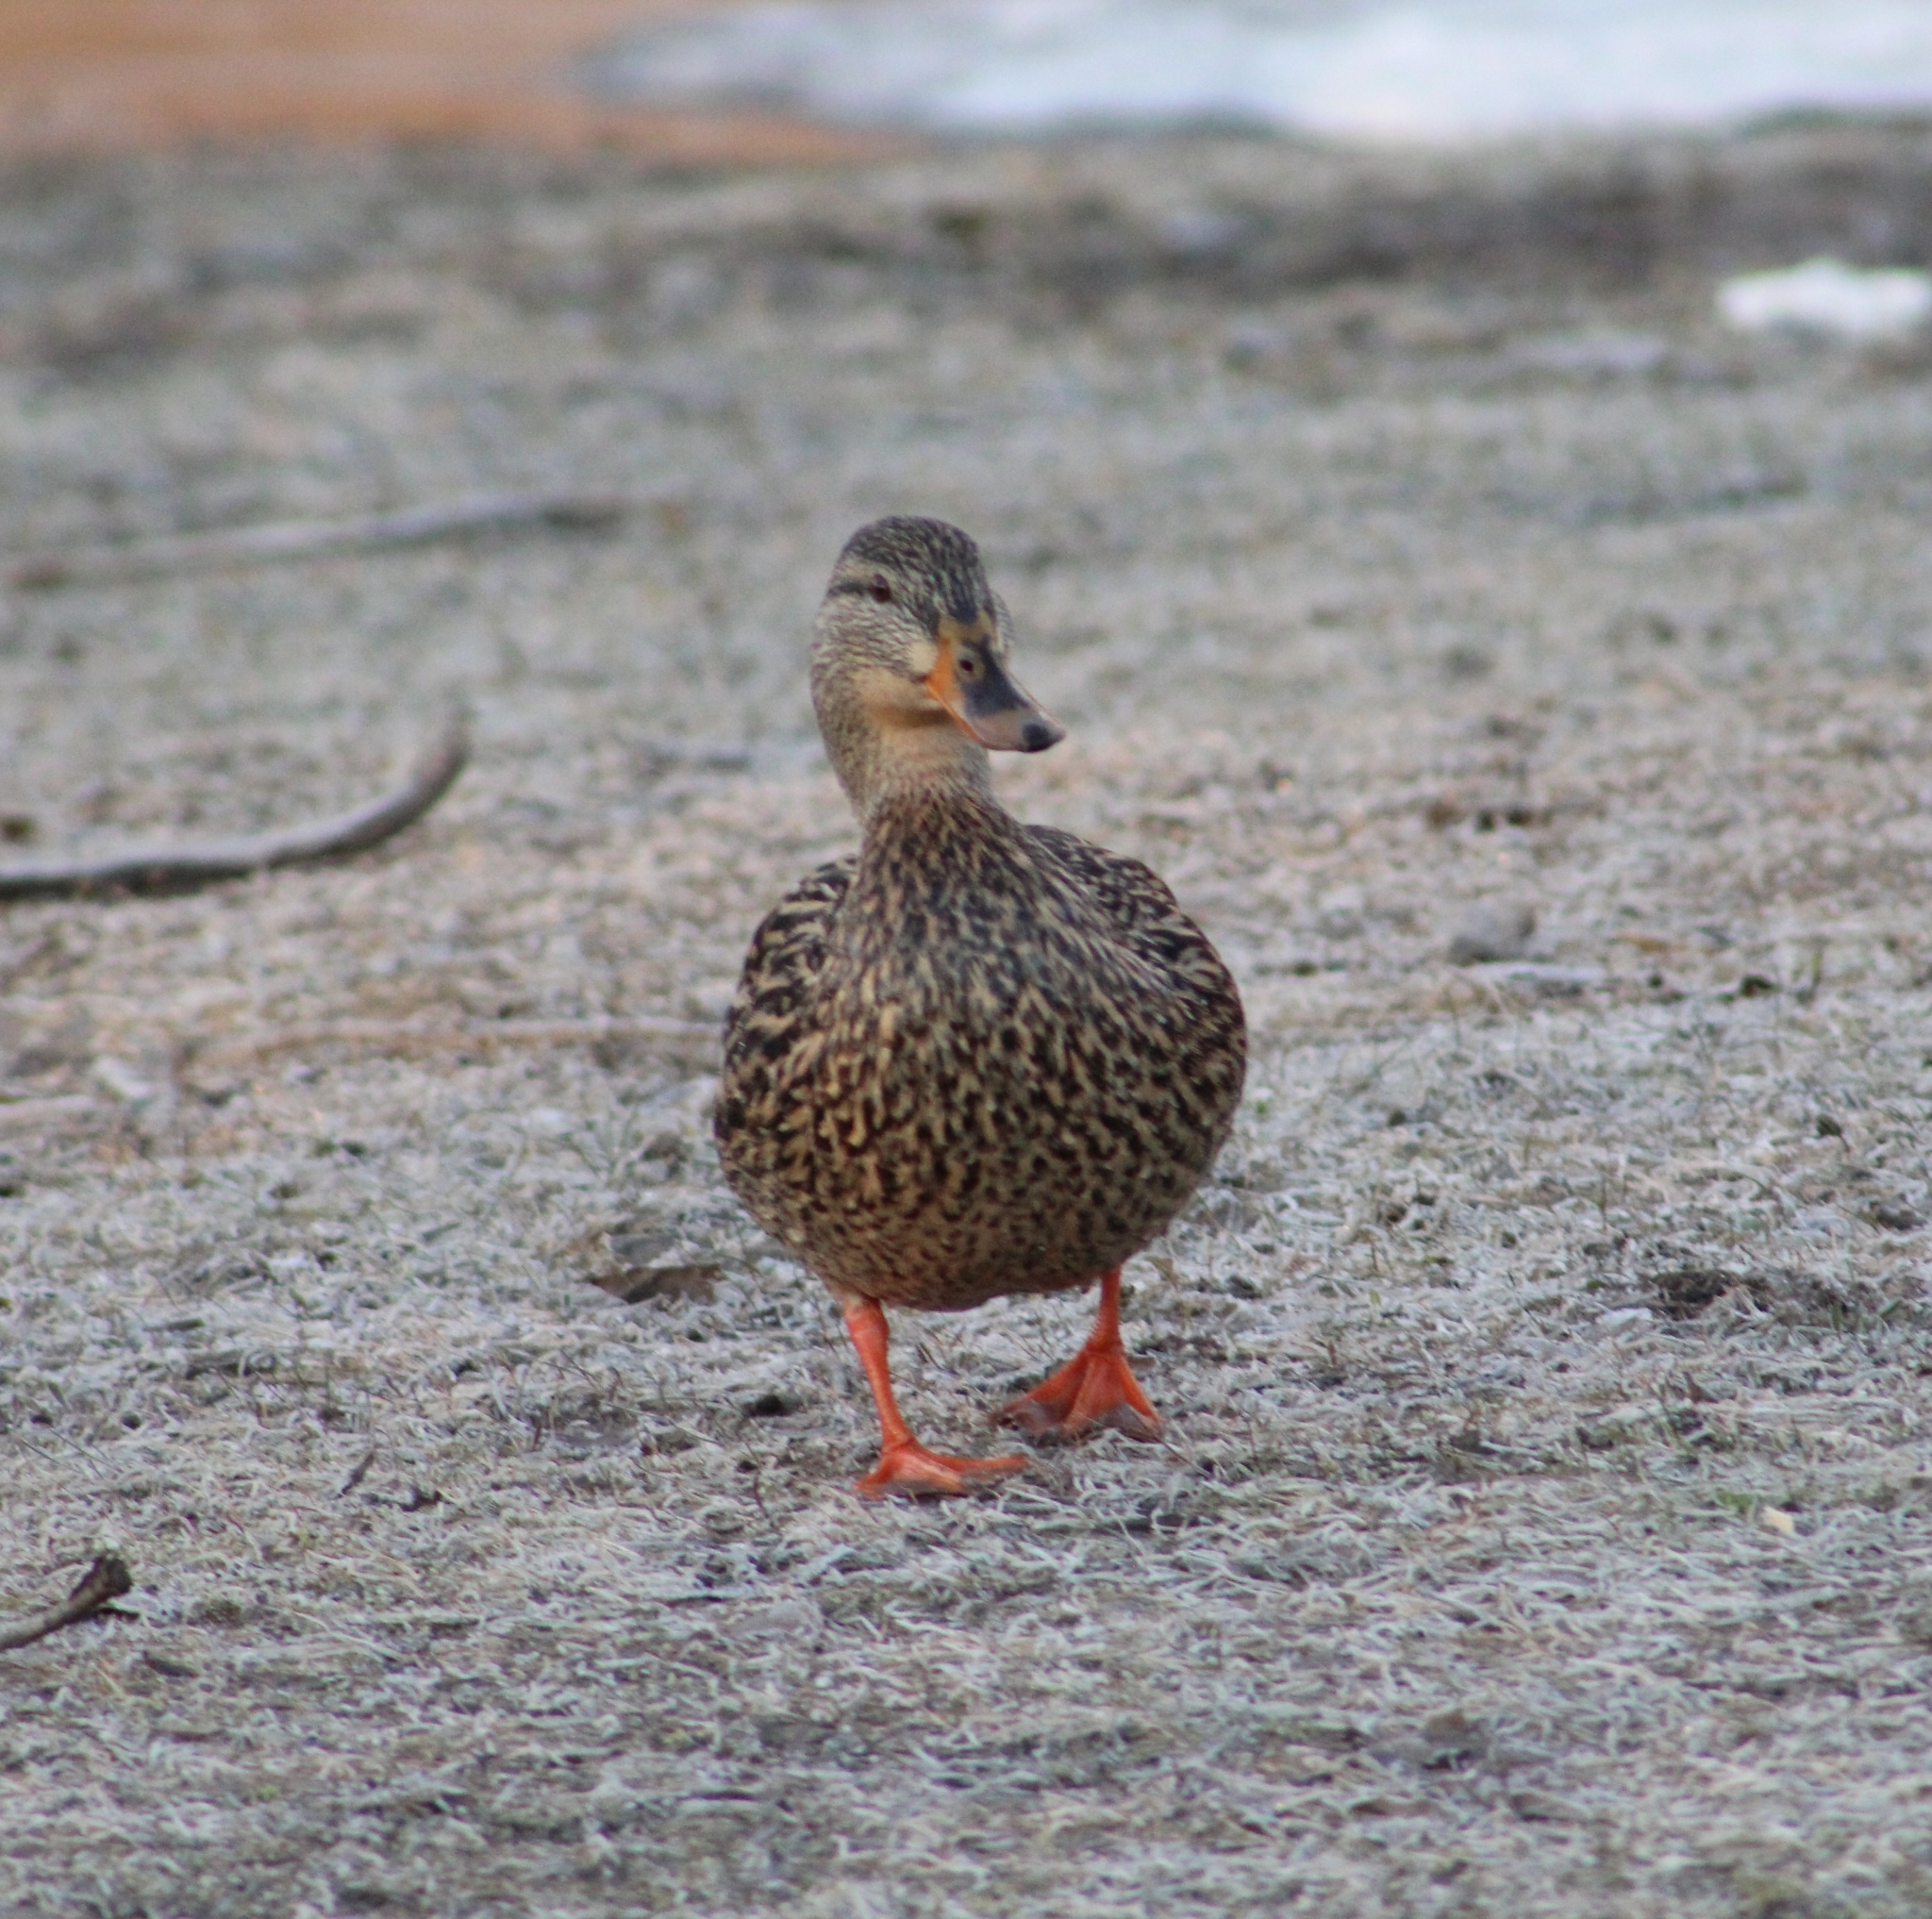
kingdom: Animalia
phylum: Chordata
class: Aves
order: Anseriformes
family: Anatidae
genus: Anas
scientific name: Anas platyrhynchos
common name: Mallard
